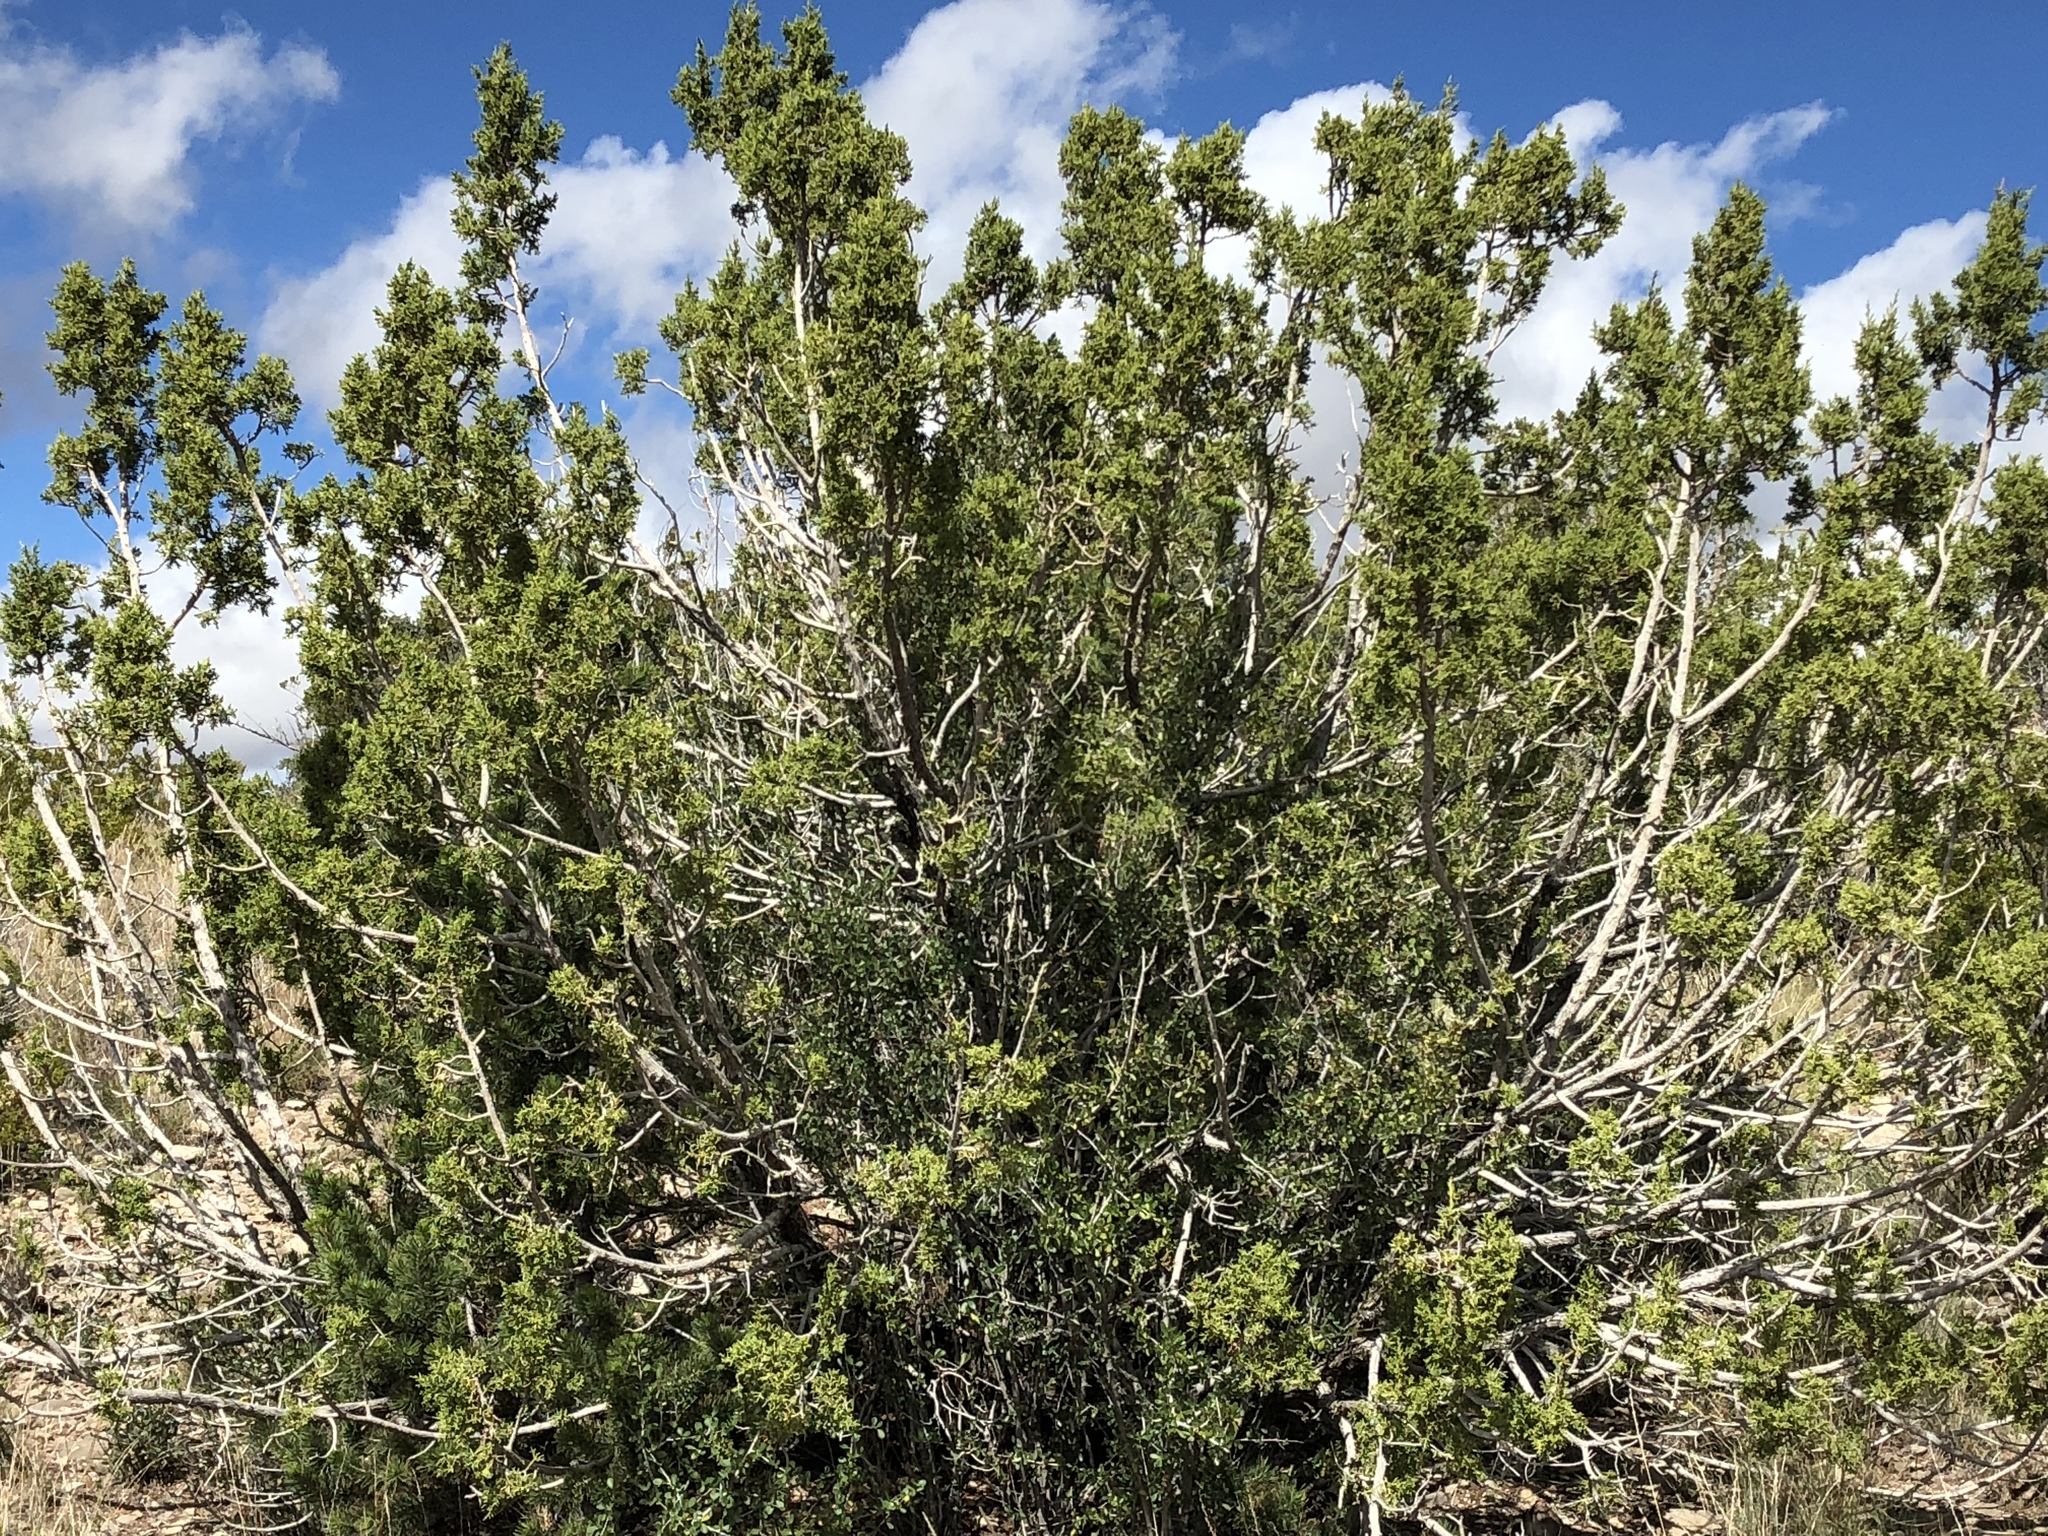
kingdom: Plantae
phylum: Tracheophyta
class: Pinopsida
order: Pinales
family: Cupressaceae
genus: Juniperus
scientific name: Juniperus monosperma
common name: One-seed juniper
